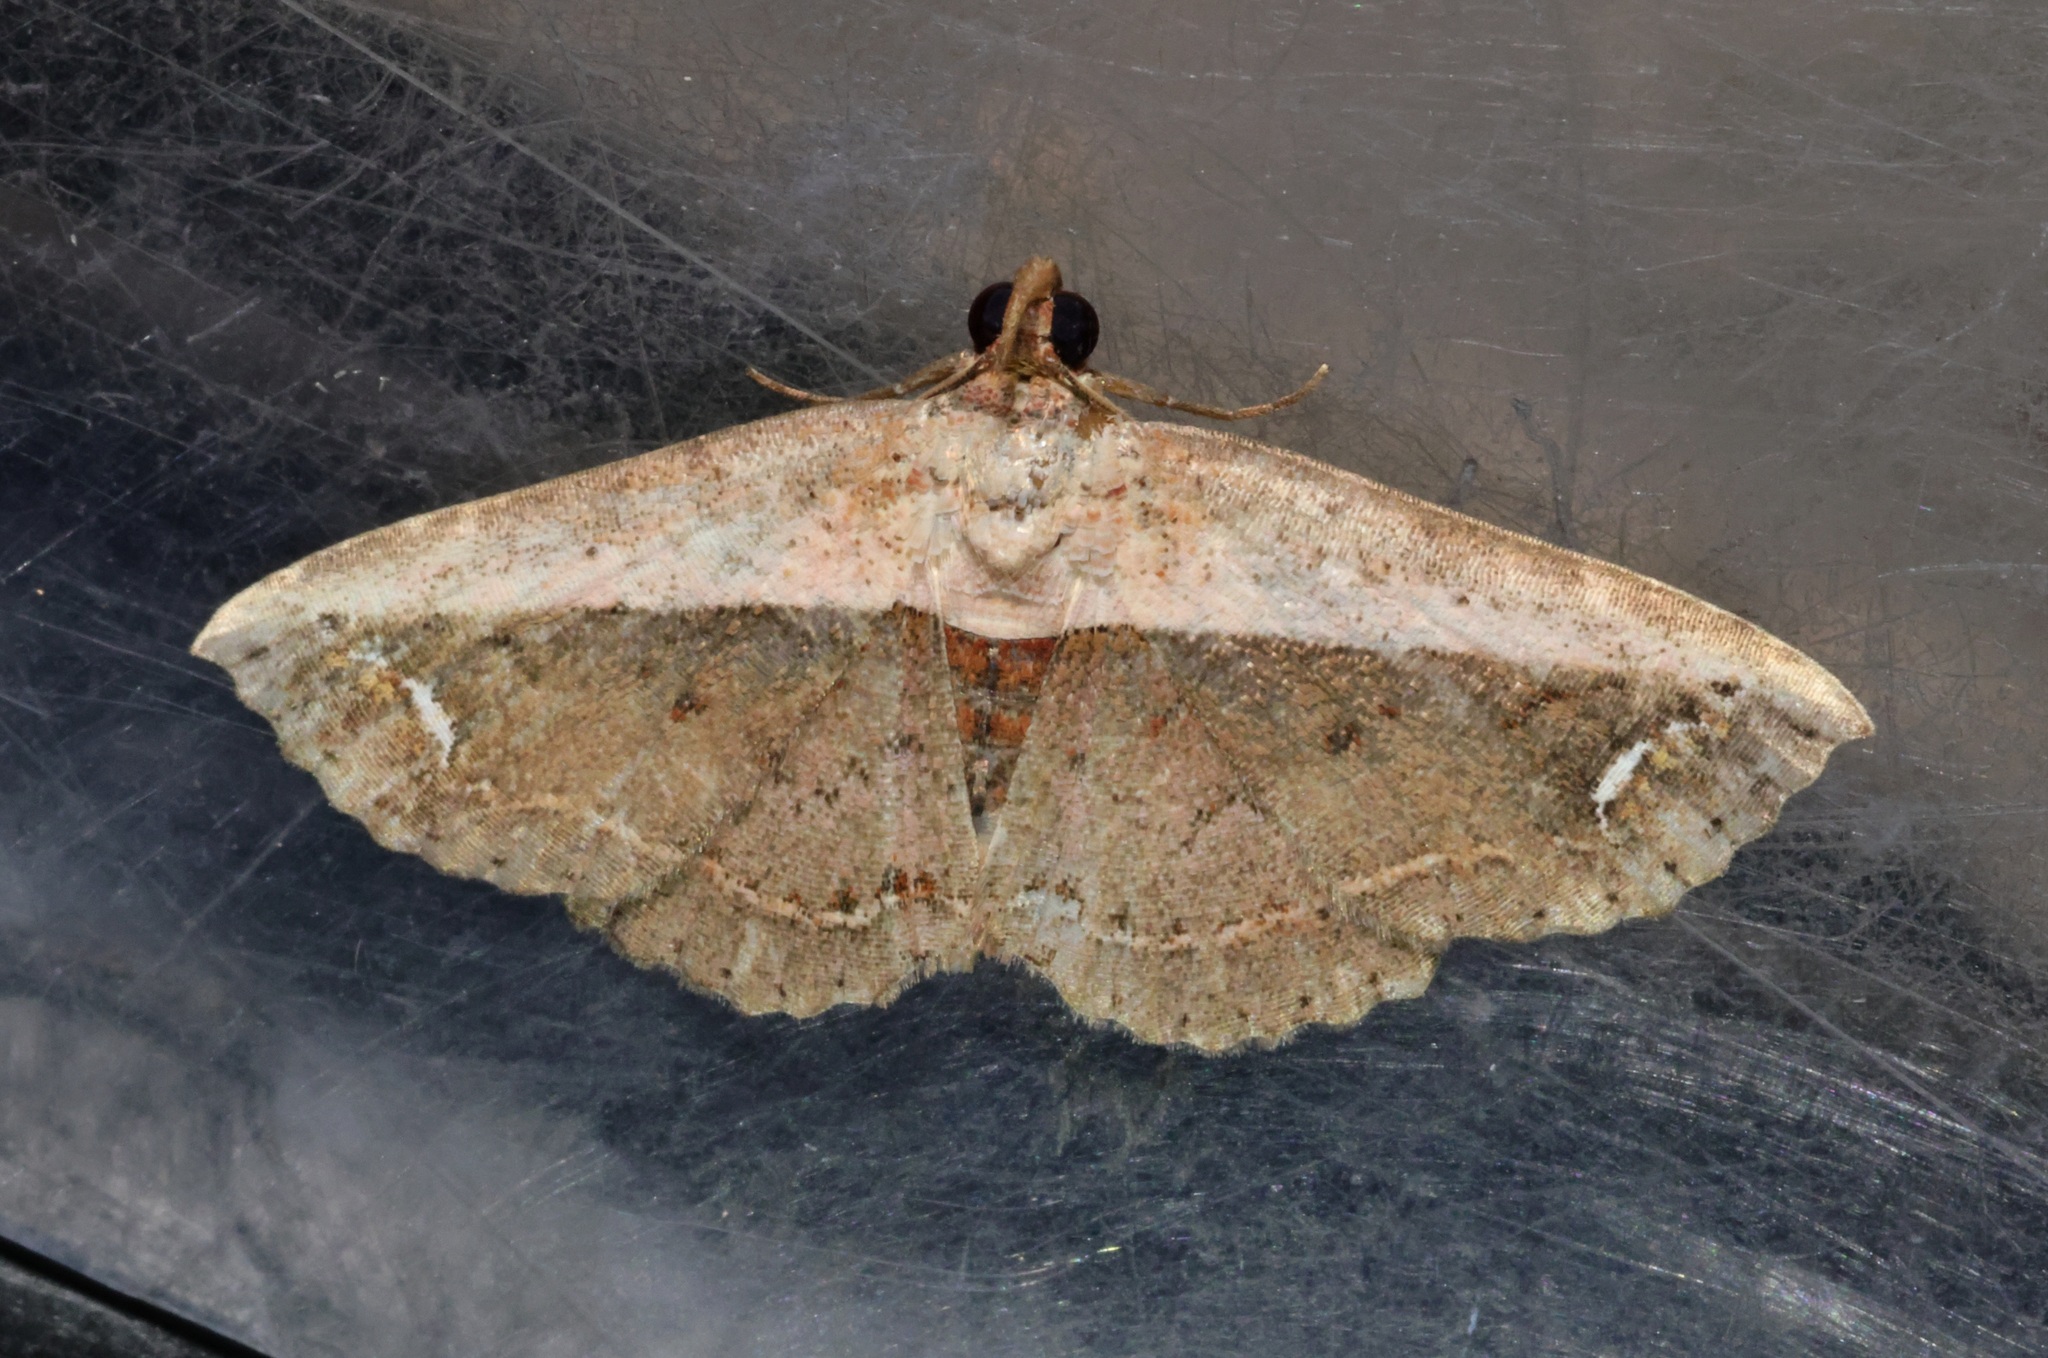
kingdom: Animalia
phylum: Arthropoda
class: Insecta
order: Lepidoptera
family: Noctuidae
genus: Eugnathia
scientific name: Eugnathia lunifera
